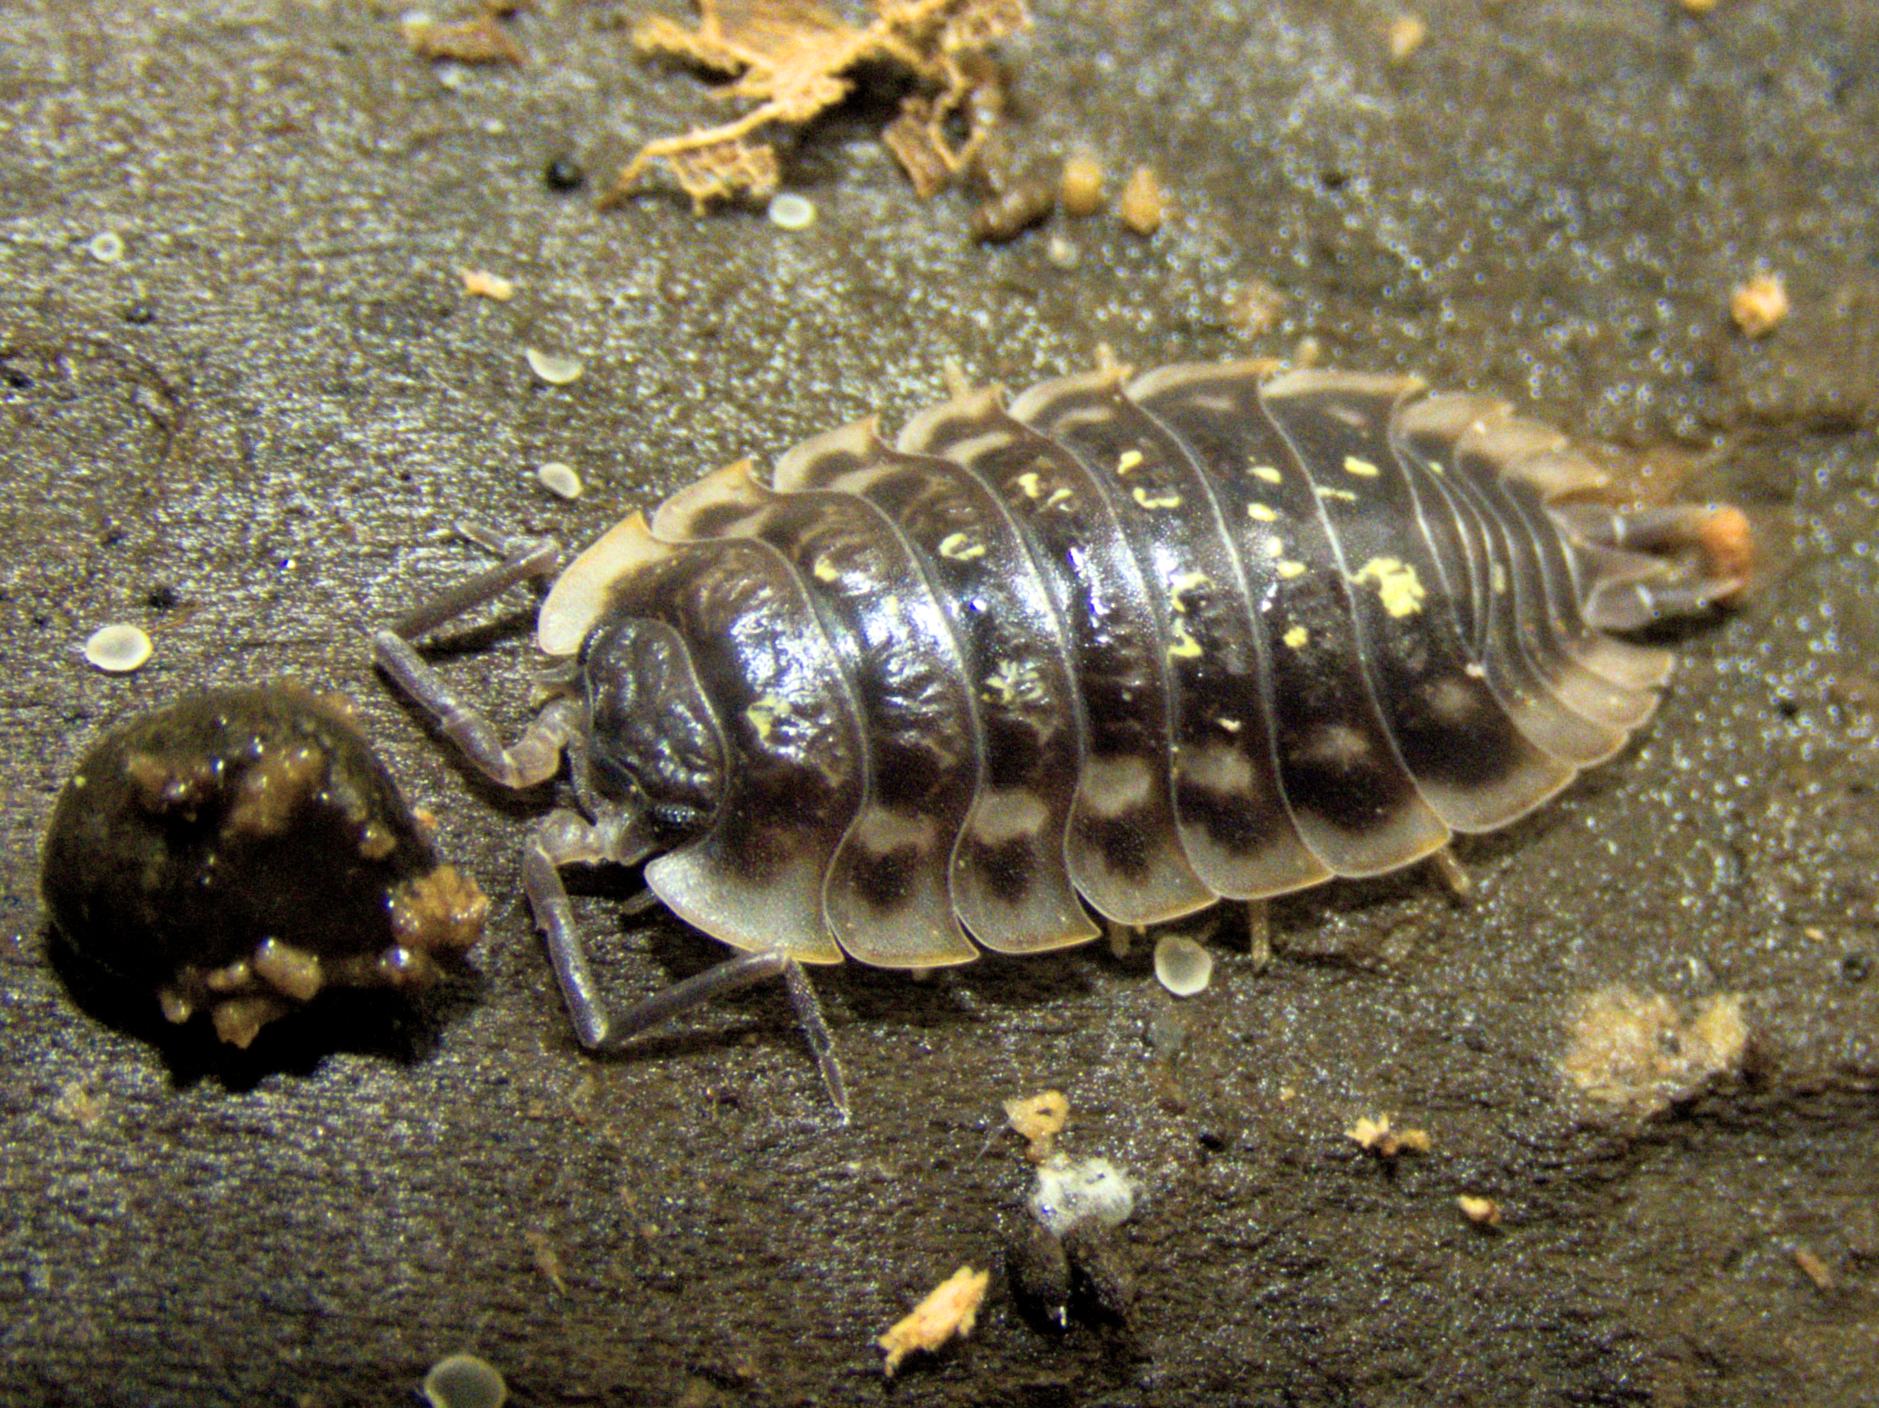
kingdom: Animalia
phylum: Arthropoda
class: Malacostraca
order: Isopoda
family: Oniscidae
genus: Oniscus
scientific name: Oniscus asellus
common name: Common shiny woodlouse
